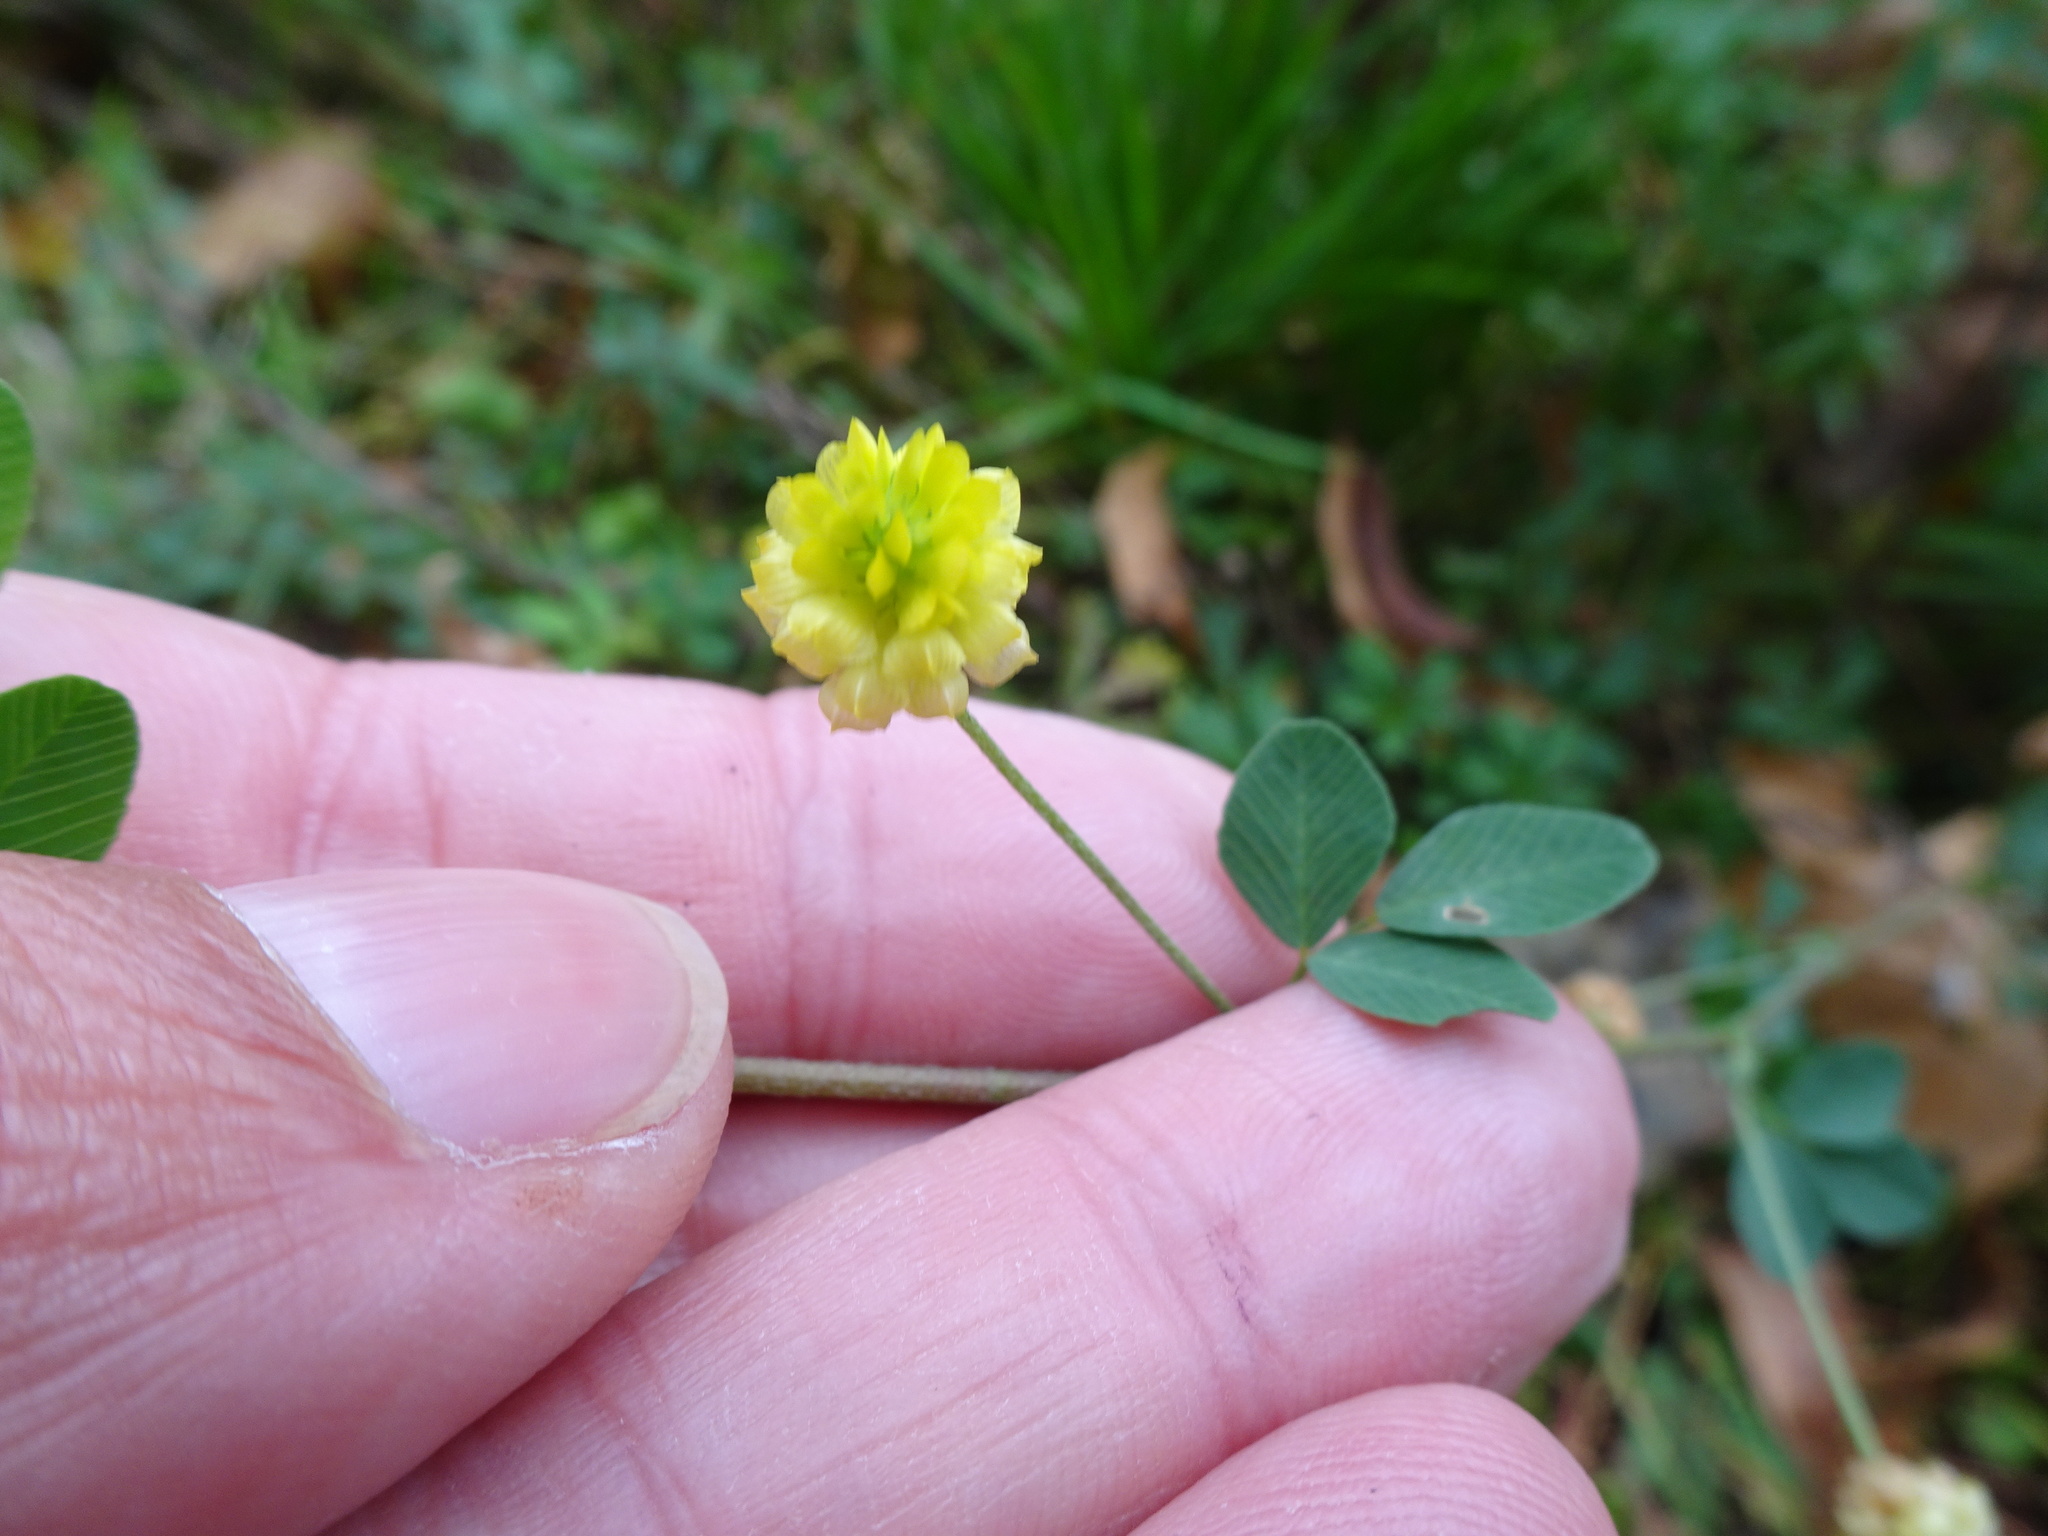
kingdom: Plantae
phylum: Tracheophyta
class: Magnoliopsida
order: Fabales
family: Fabaceae
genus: Trifolium
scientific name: Trifolium campestre
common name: Field clover
